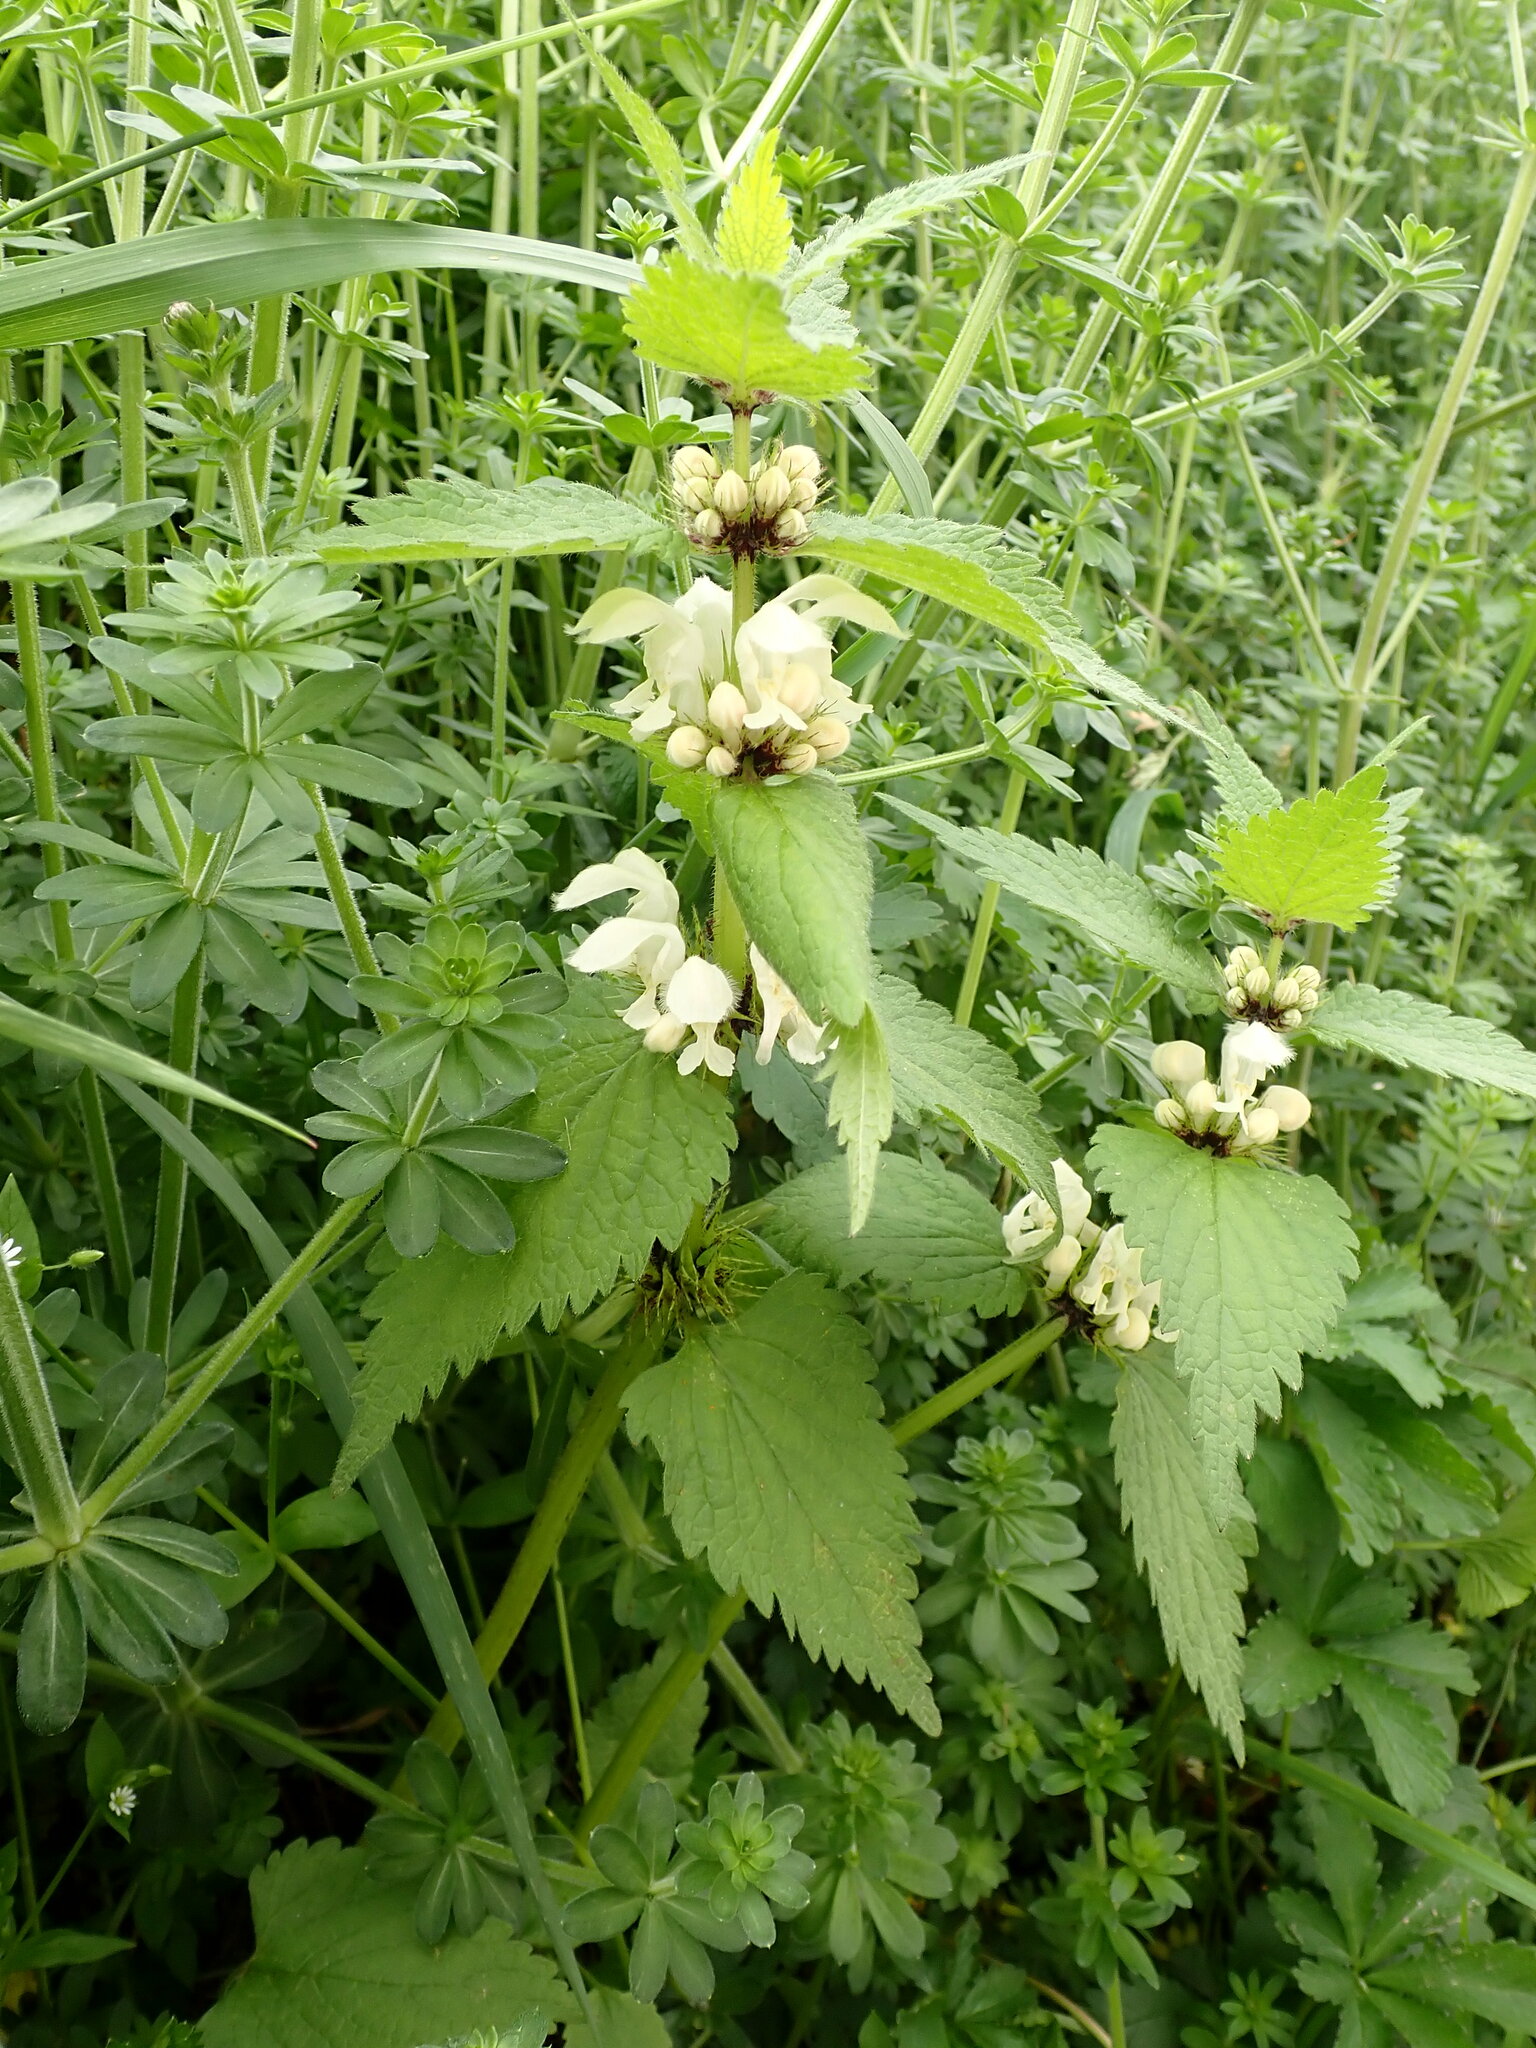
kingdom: Plantae
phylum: Tracheophyta
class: Magnoliopsida
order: Lamiales
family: Lamiaceae
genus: Lamium
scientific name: Lamium album
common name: White dead-nettle
